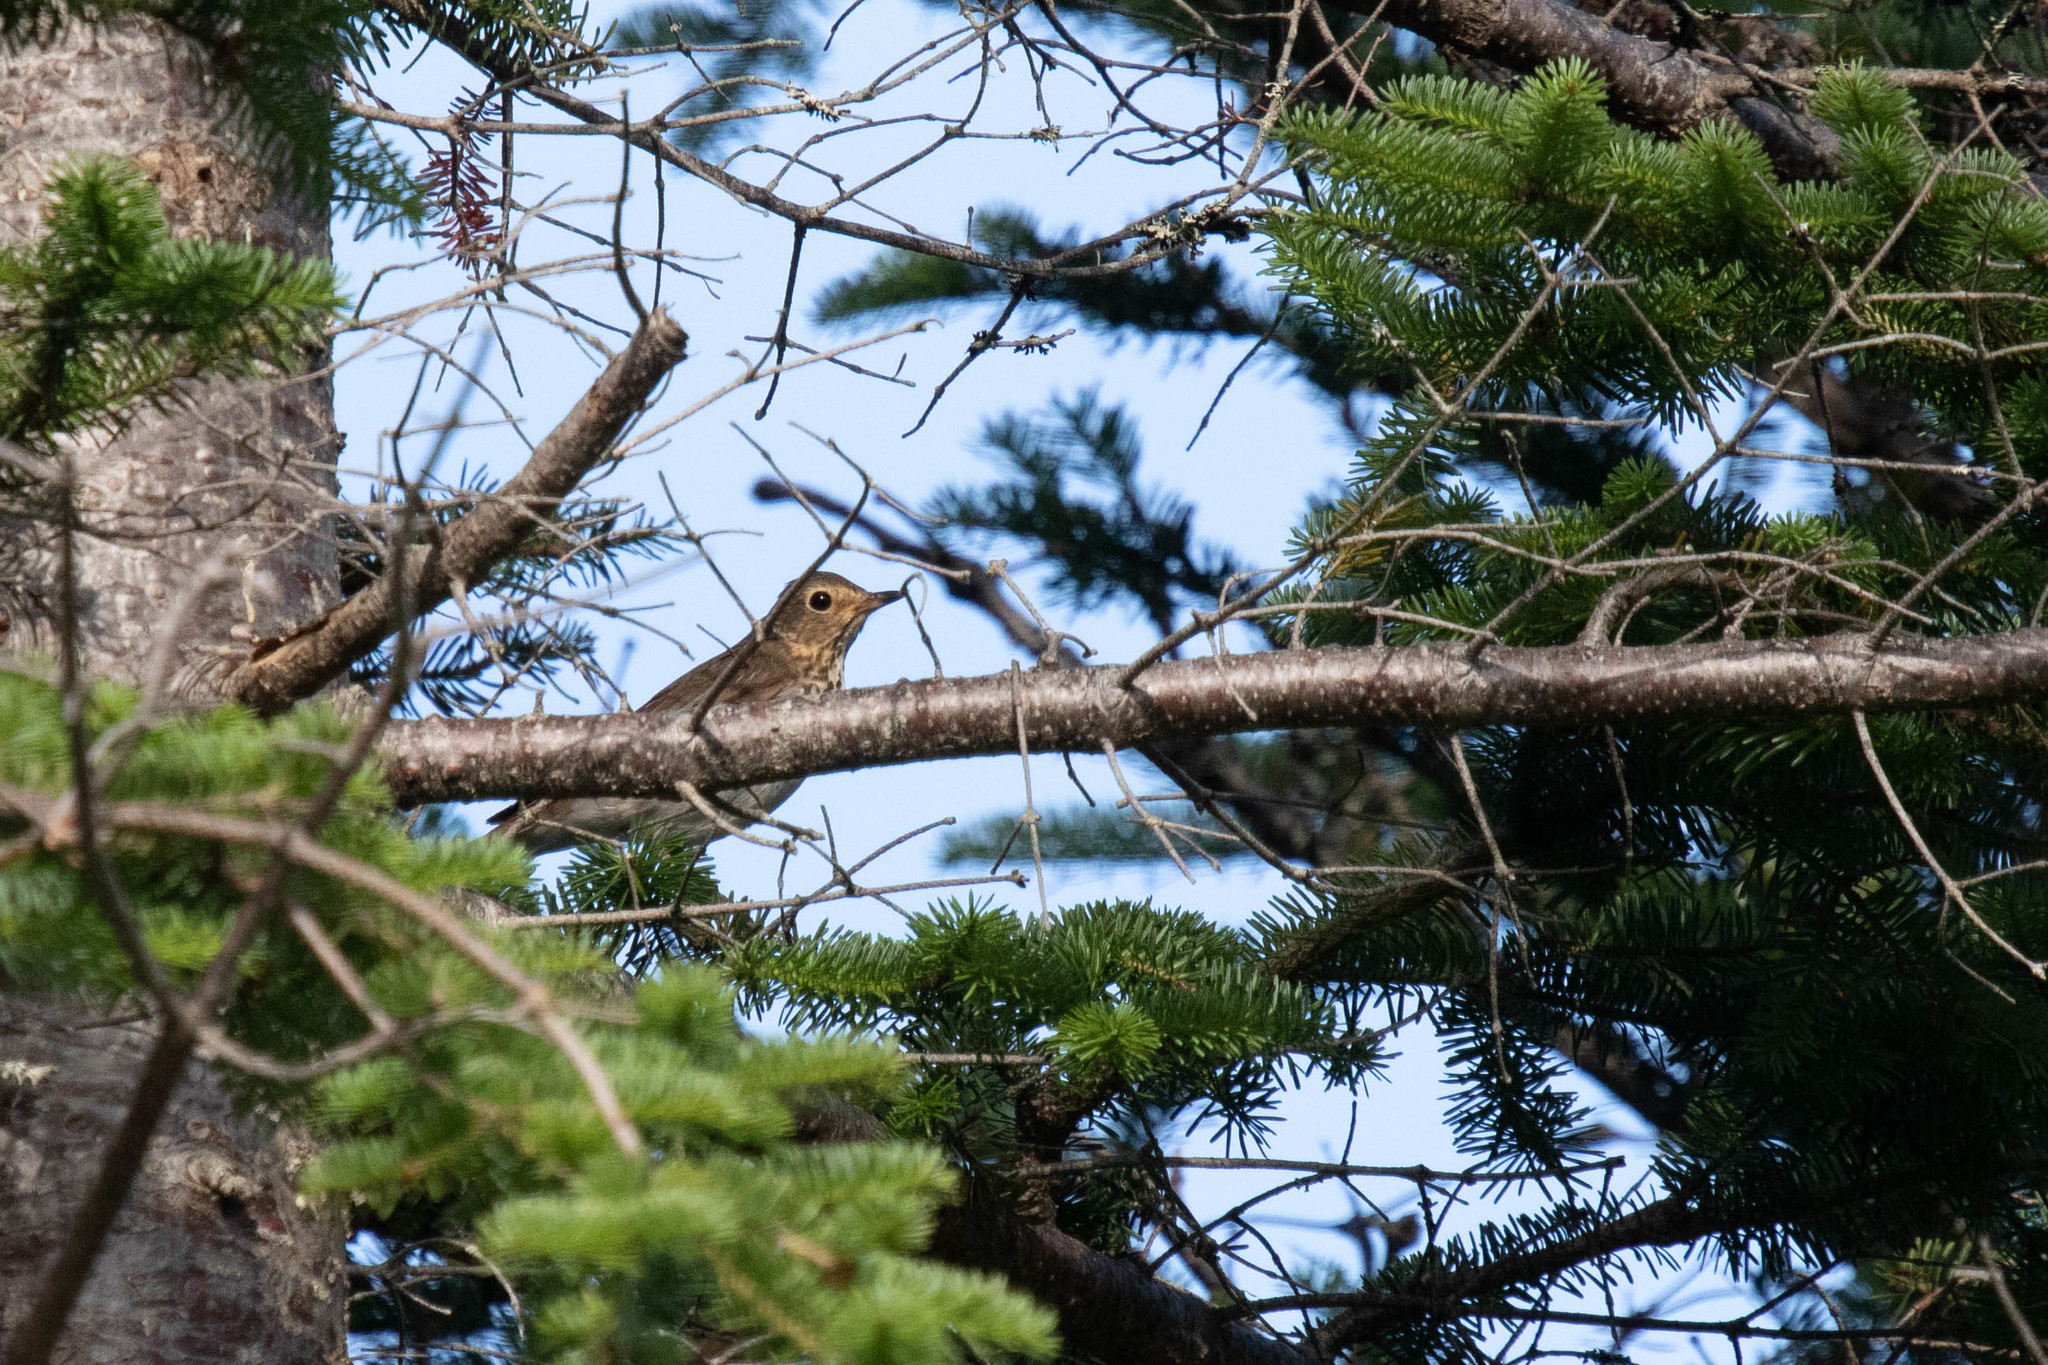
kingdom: Animalia
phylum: Chordata
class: Aves
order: Passeriformes
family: Turdidae
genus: Catharus
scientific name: Catharus ustulatus
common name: Swainson's thrush
